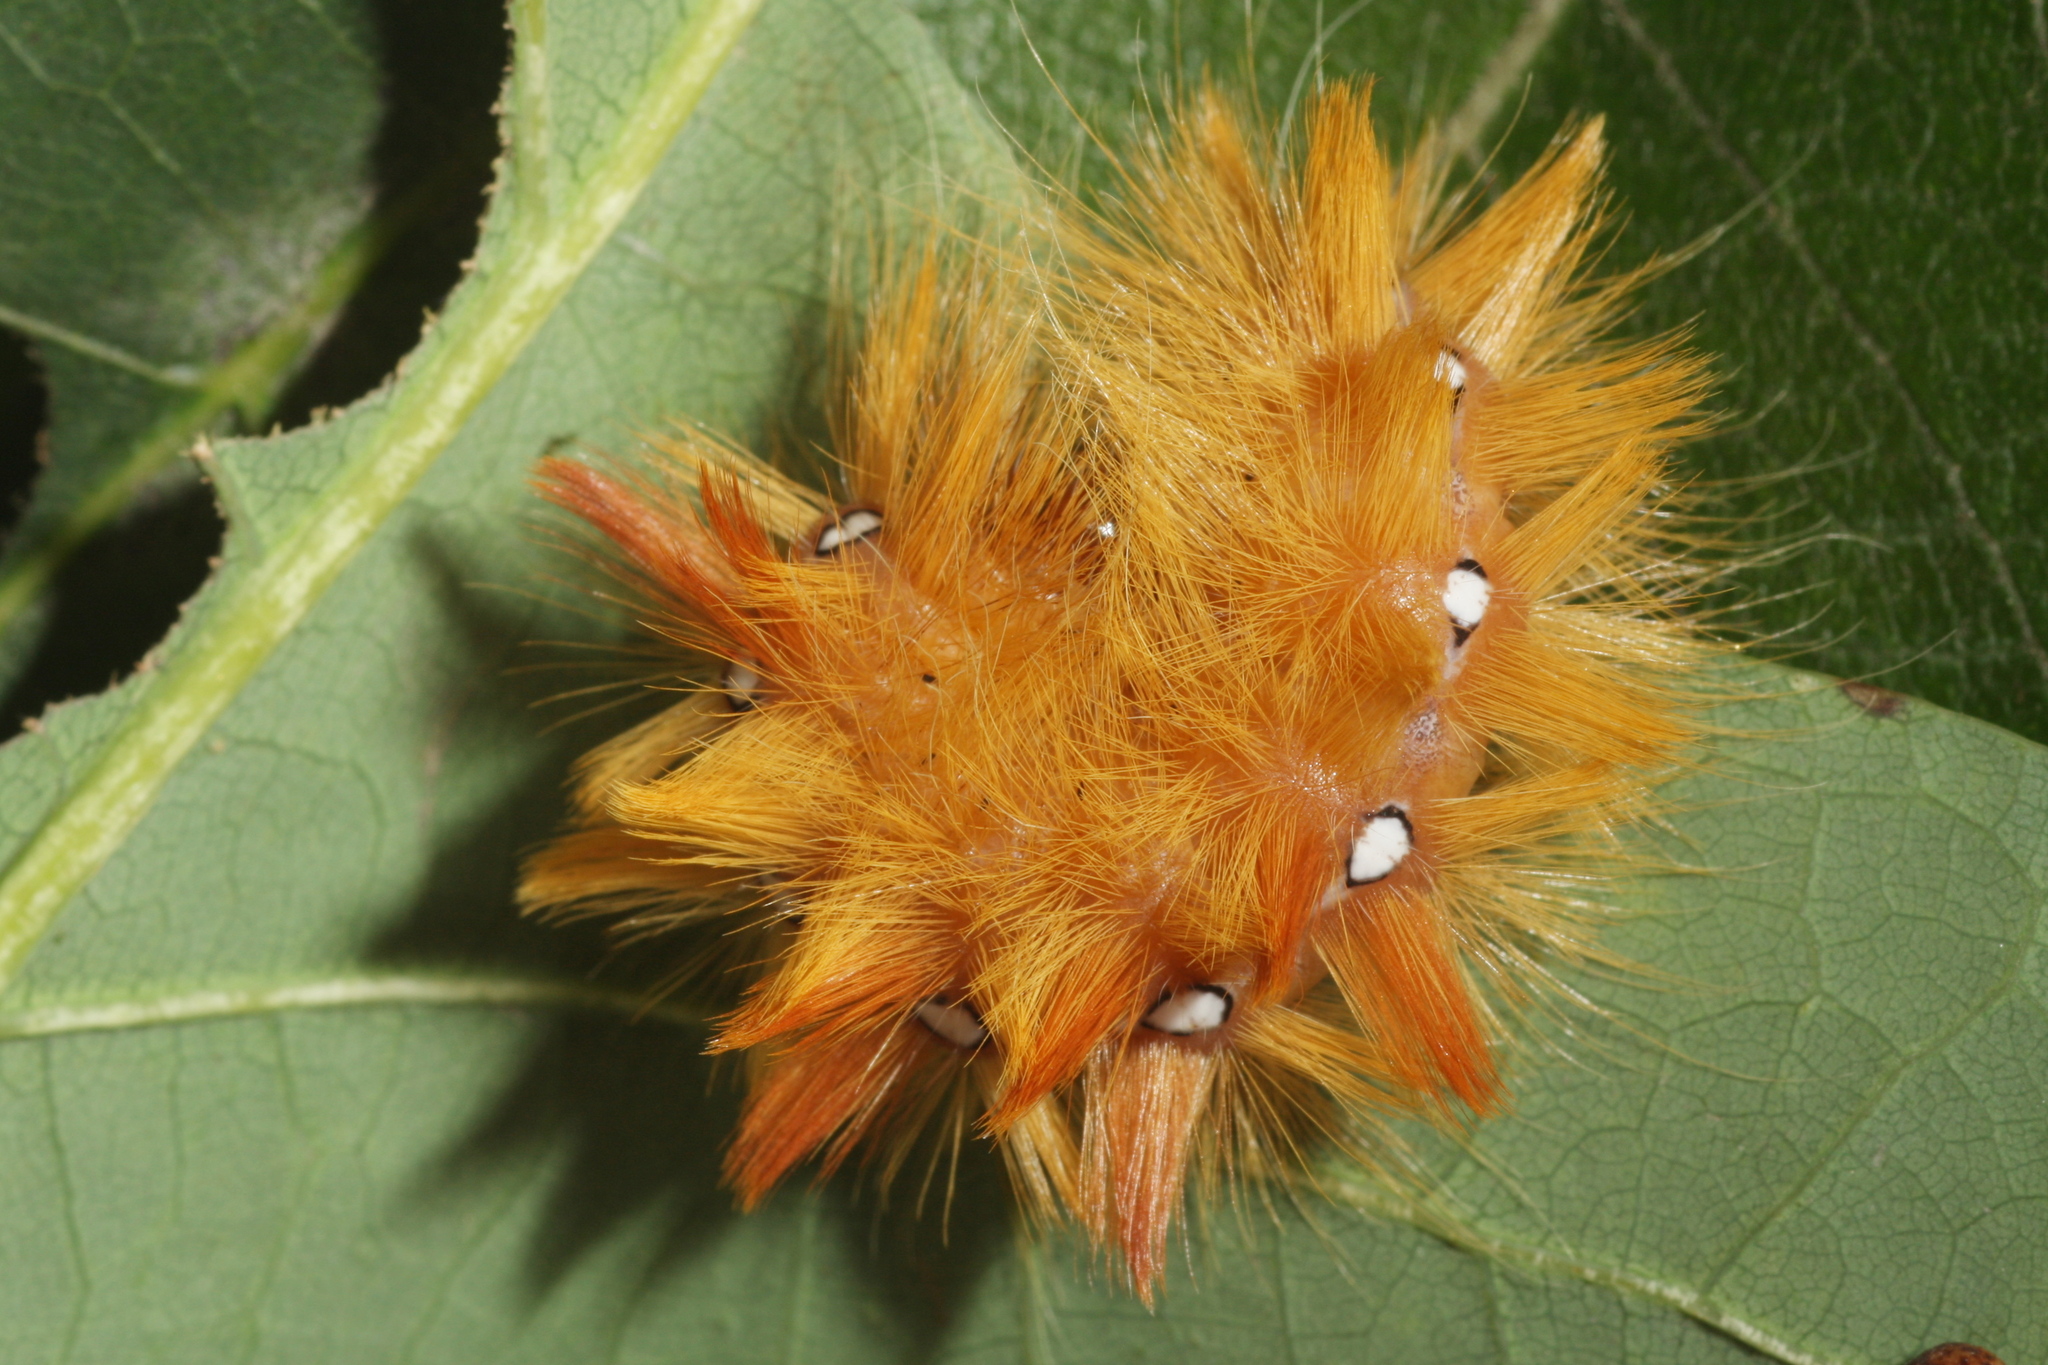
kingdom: Animalia
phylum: Arthropoda
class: Insecta
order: Lepidoptera
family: Noctuidae
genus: Acronicta
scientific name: Acronicta aceris
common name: Sycamore
